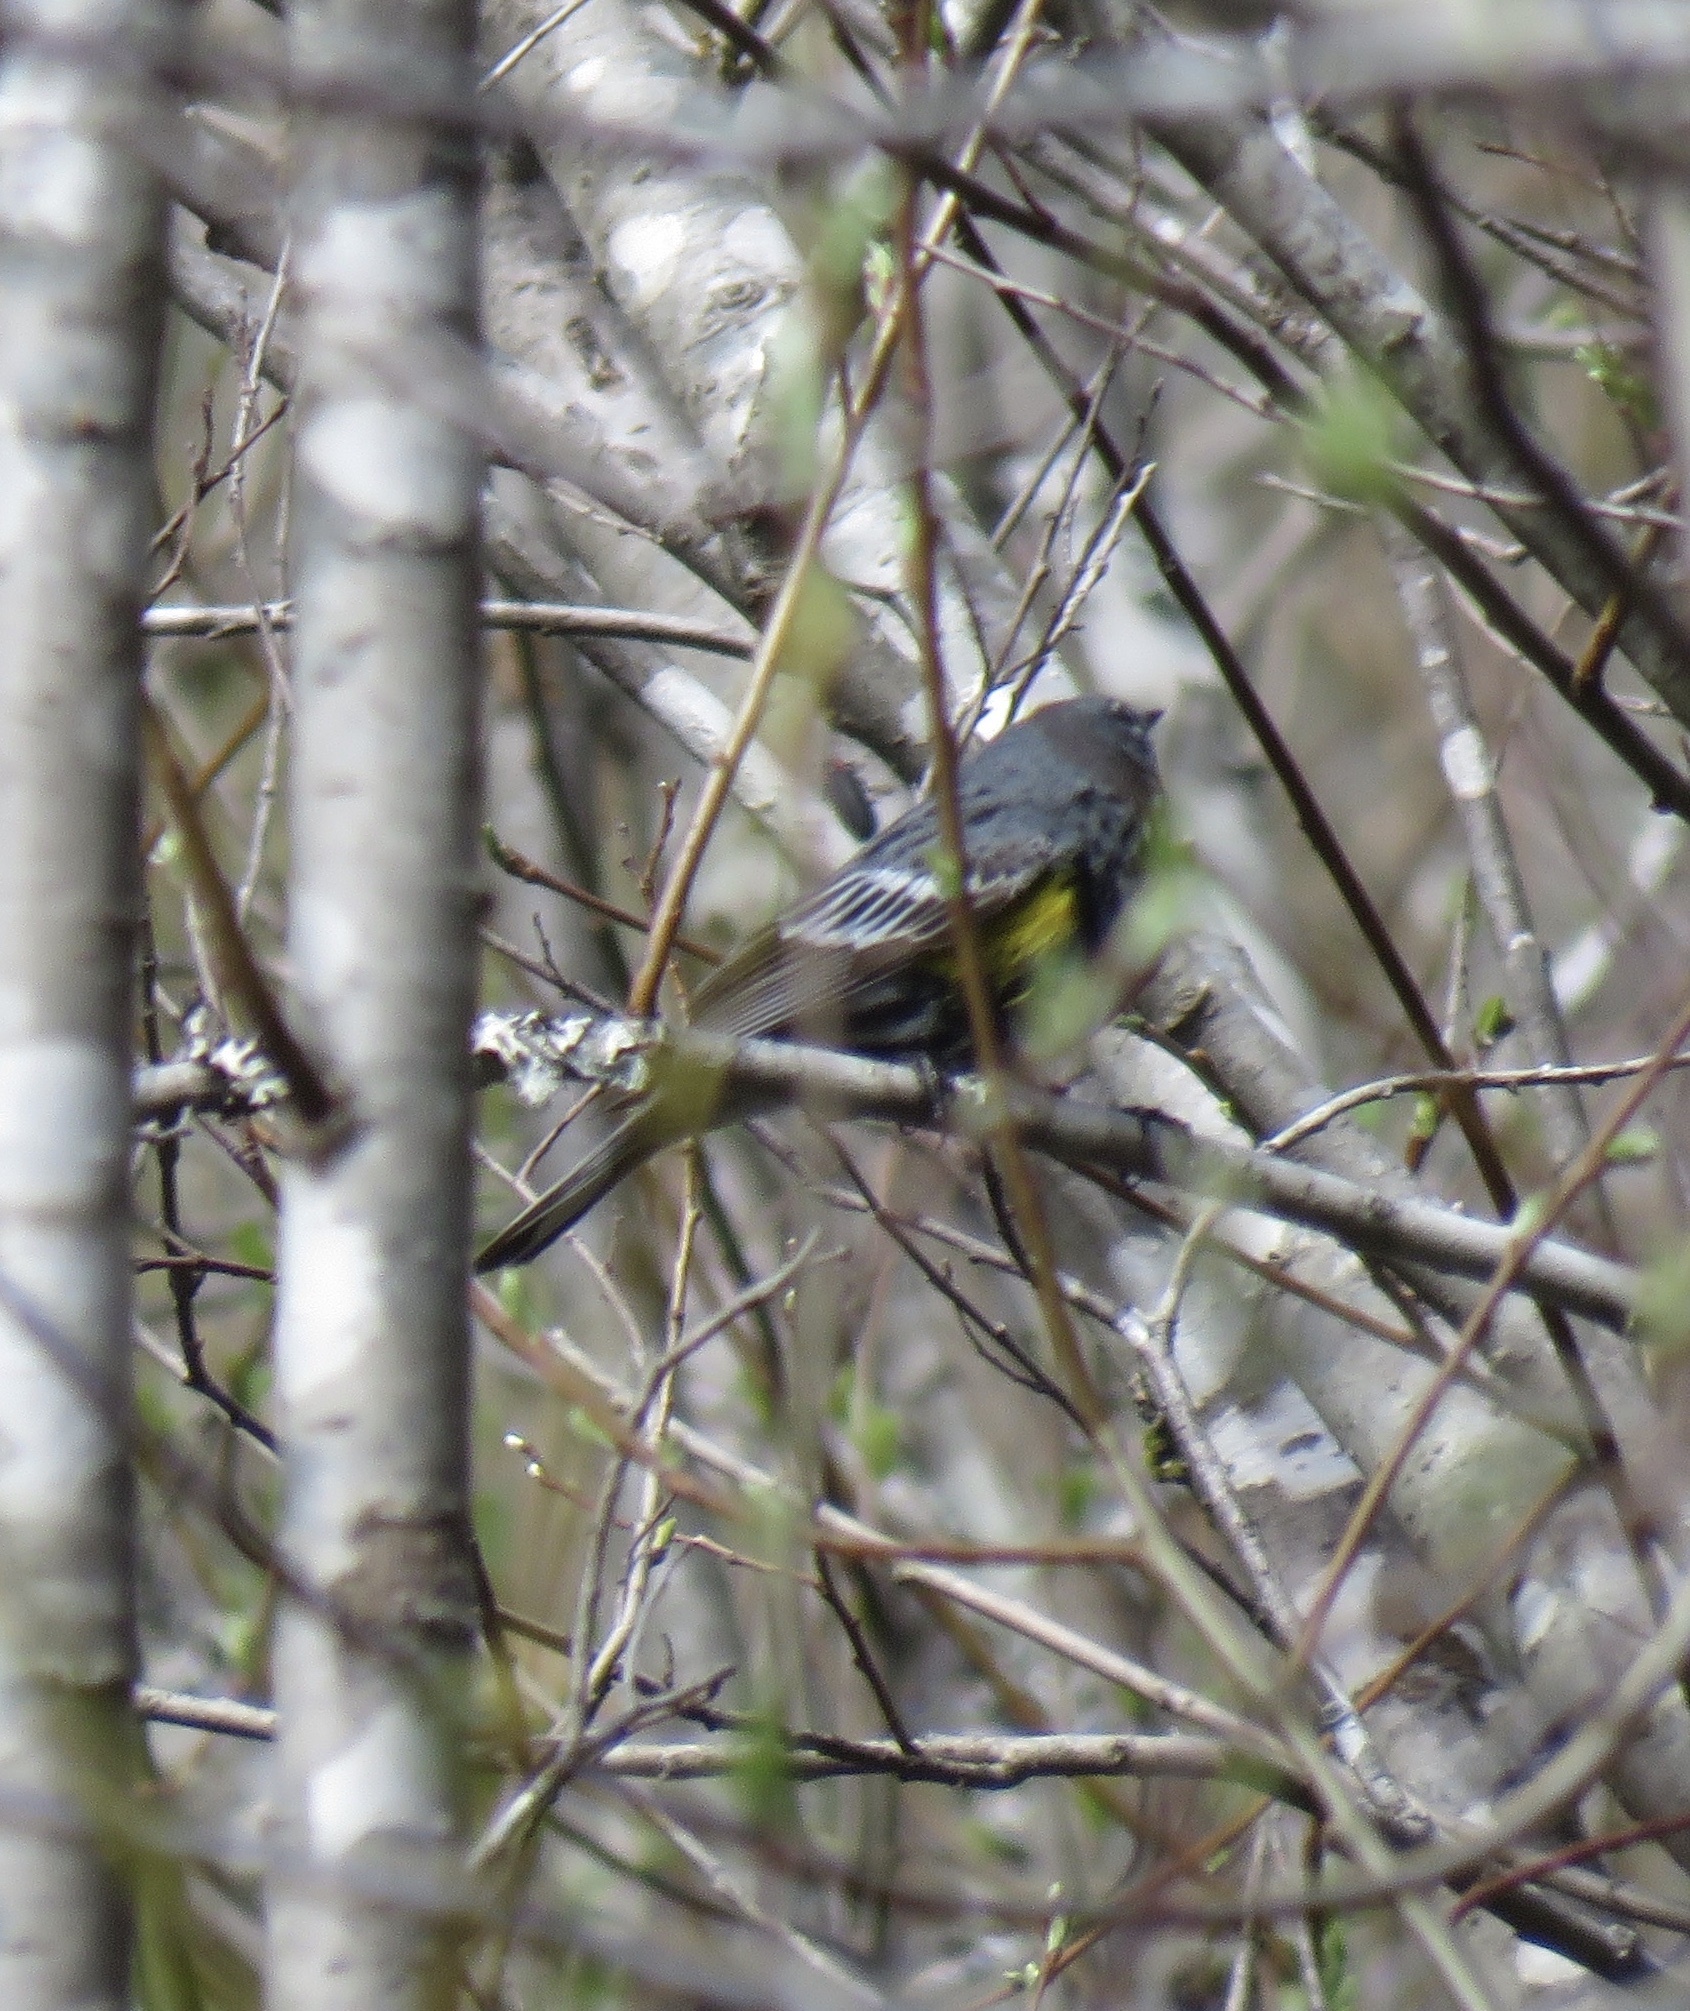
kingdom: Animalia
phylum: Chordata
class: Aves
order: Passeriformes
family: Parulidae
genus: Setophaga
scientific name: Setophaga coronata
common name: Myrtle warbler
